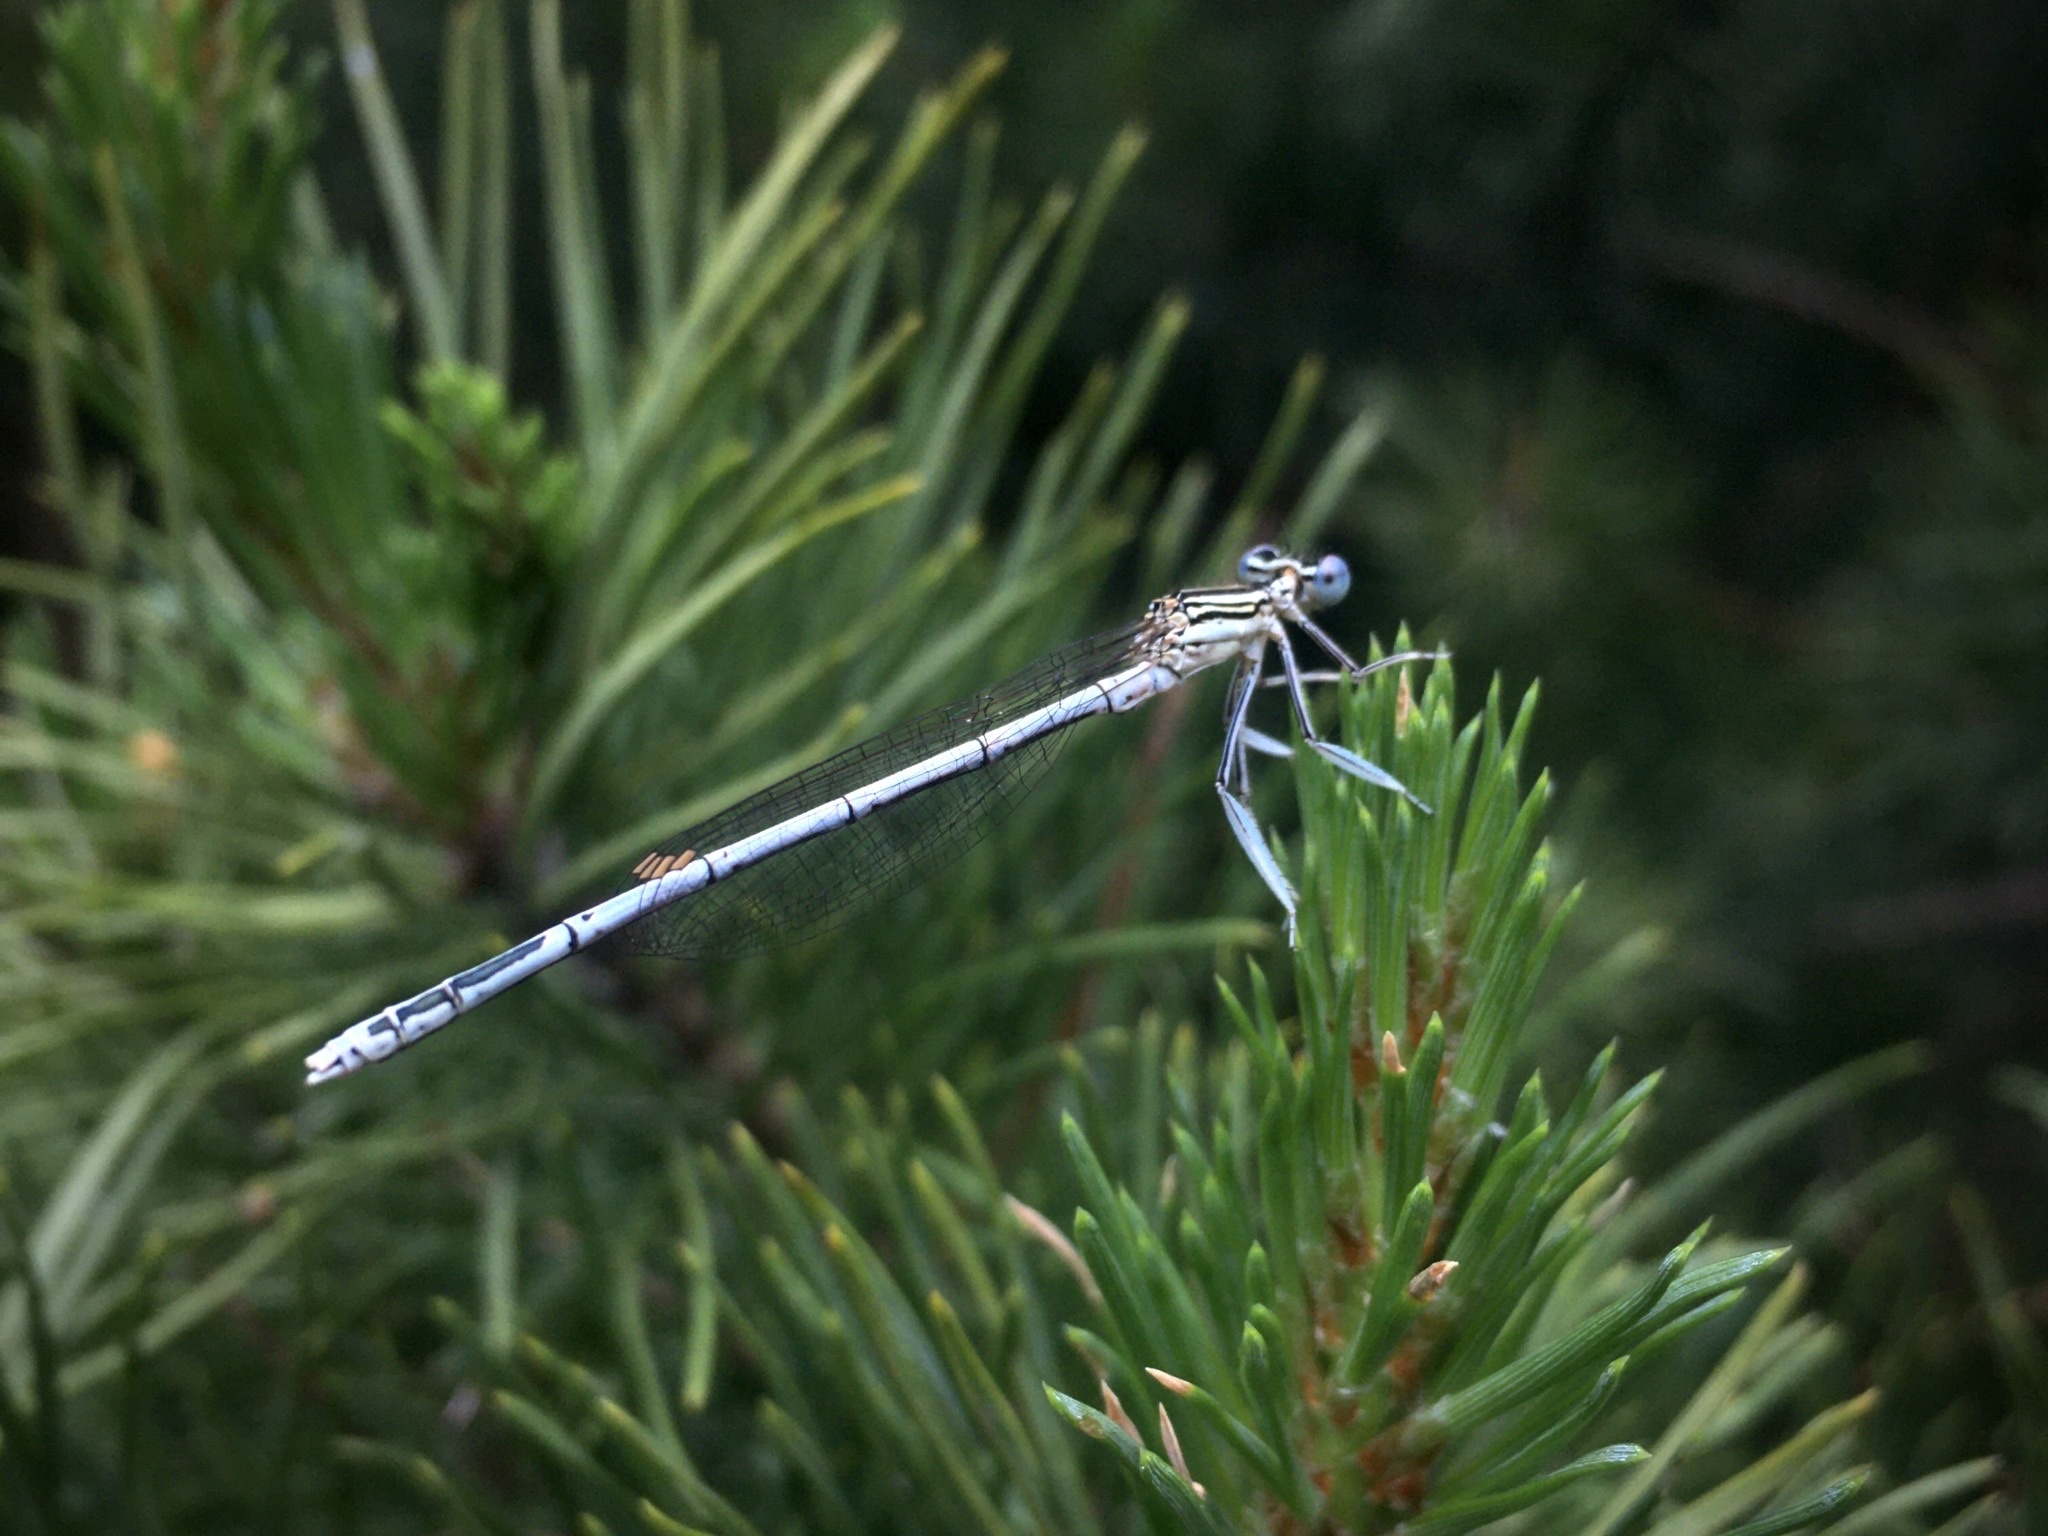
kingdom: Animalia
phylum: Arthropoda
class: Insecta
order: Odonata
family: Platycnemididae
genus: Platycnemis
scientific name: Platycnemis pennipes
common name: White-legged damselfly
